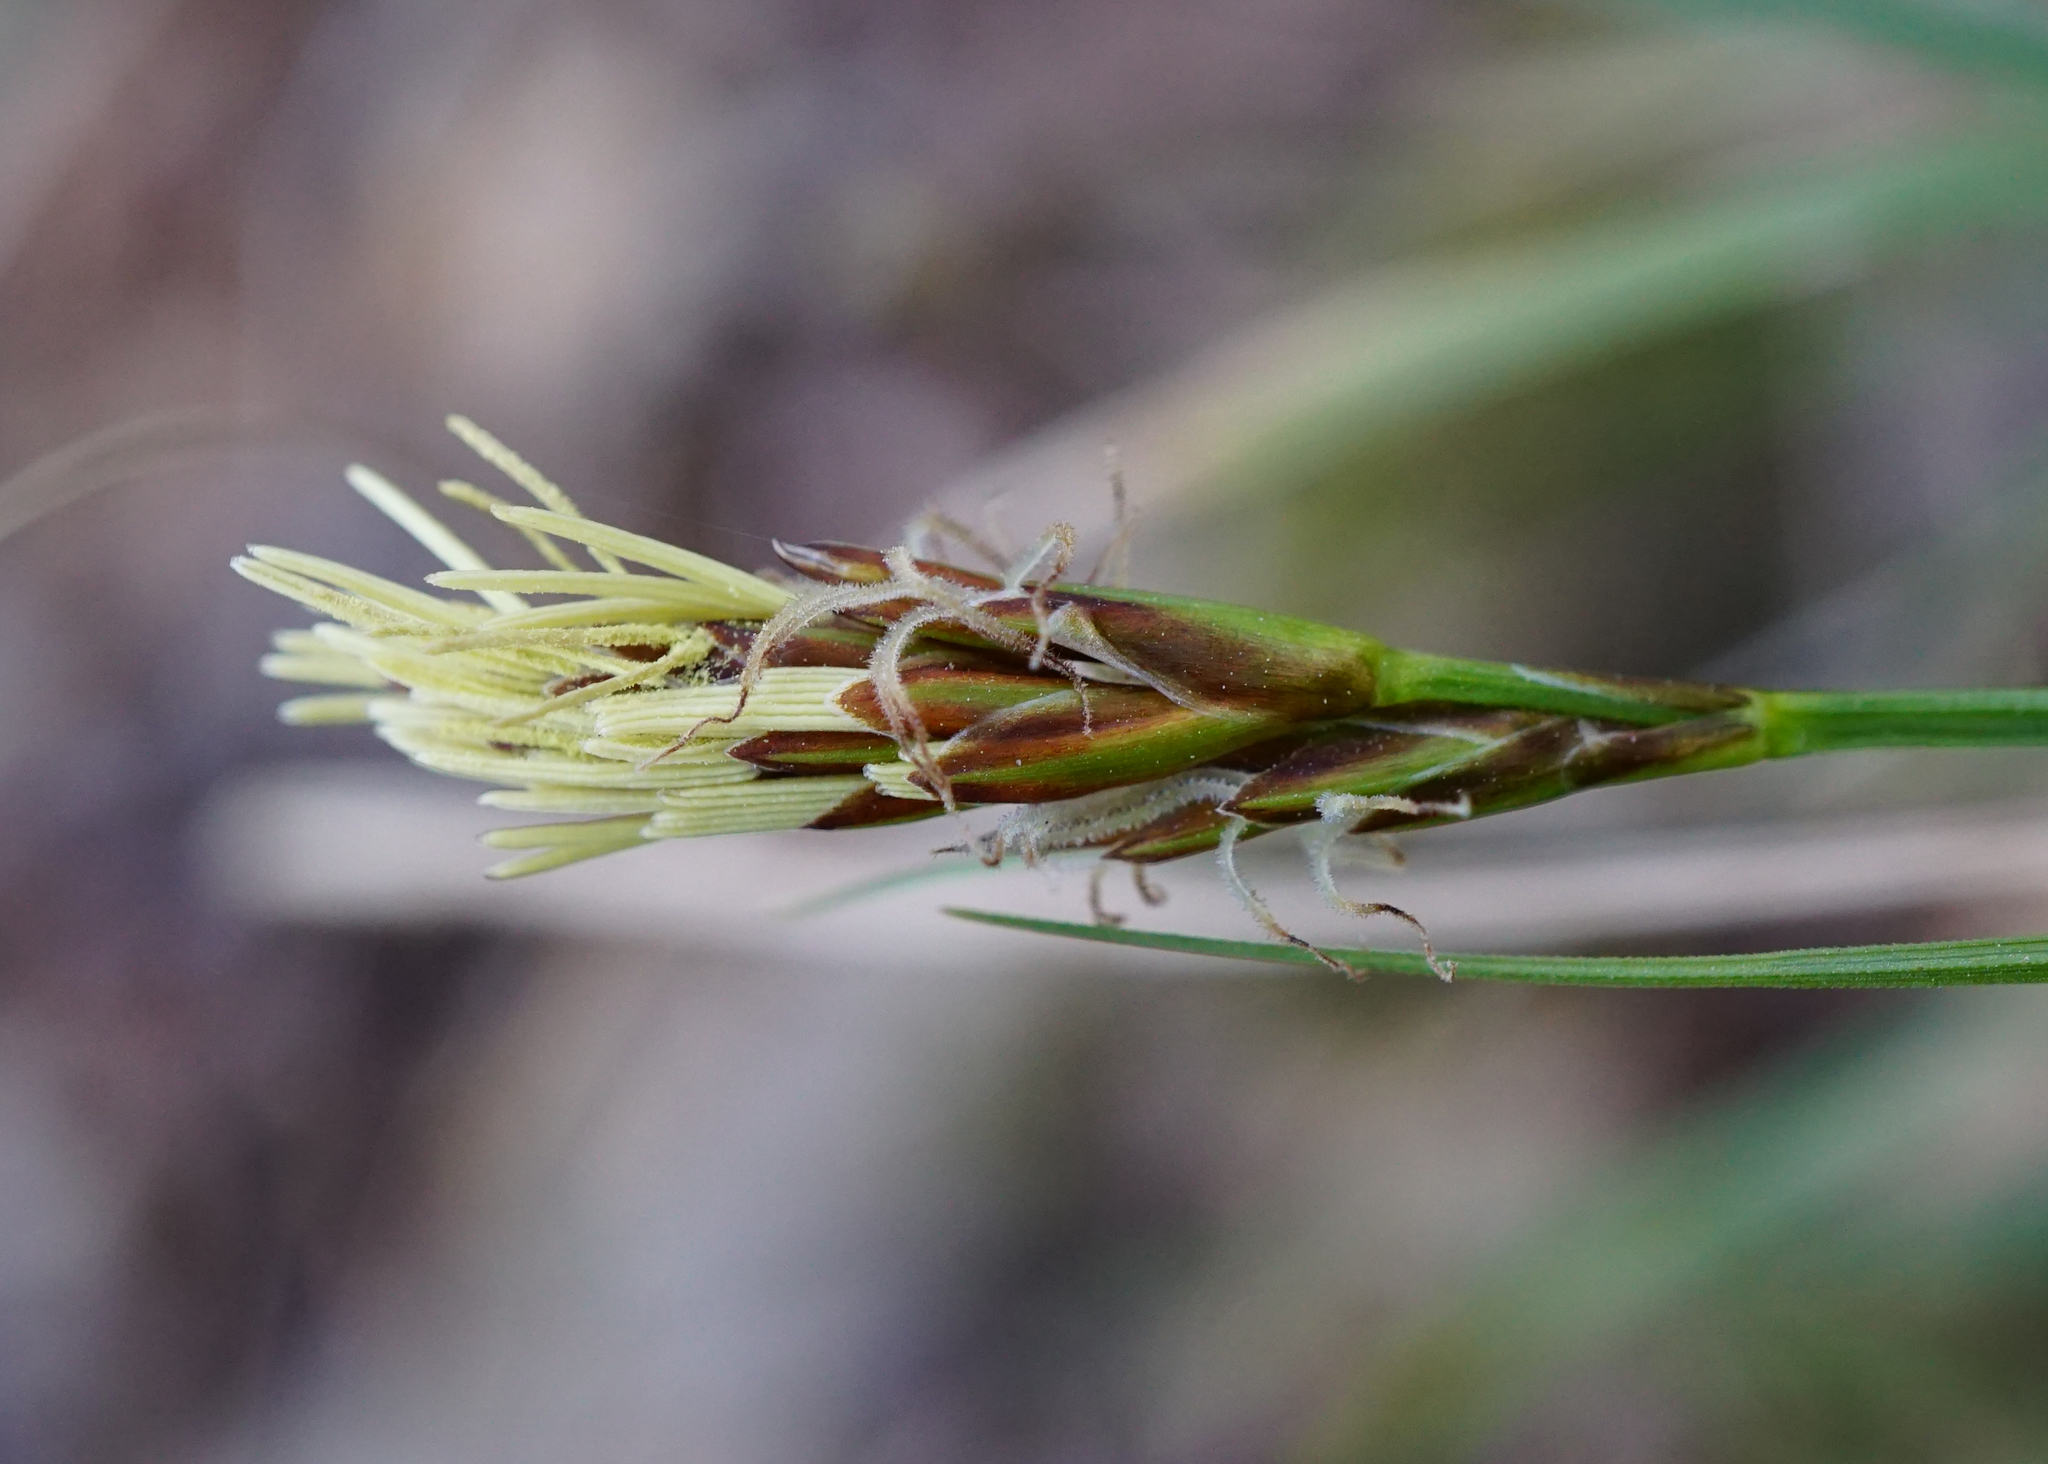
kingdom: Plantae
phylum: Tracheophyta
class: Liliopsida
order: Poales
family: Cyperaceae
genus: Carex
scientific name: Carex halleriana
